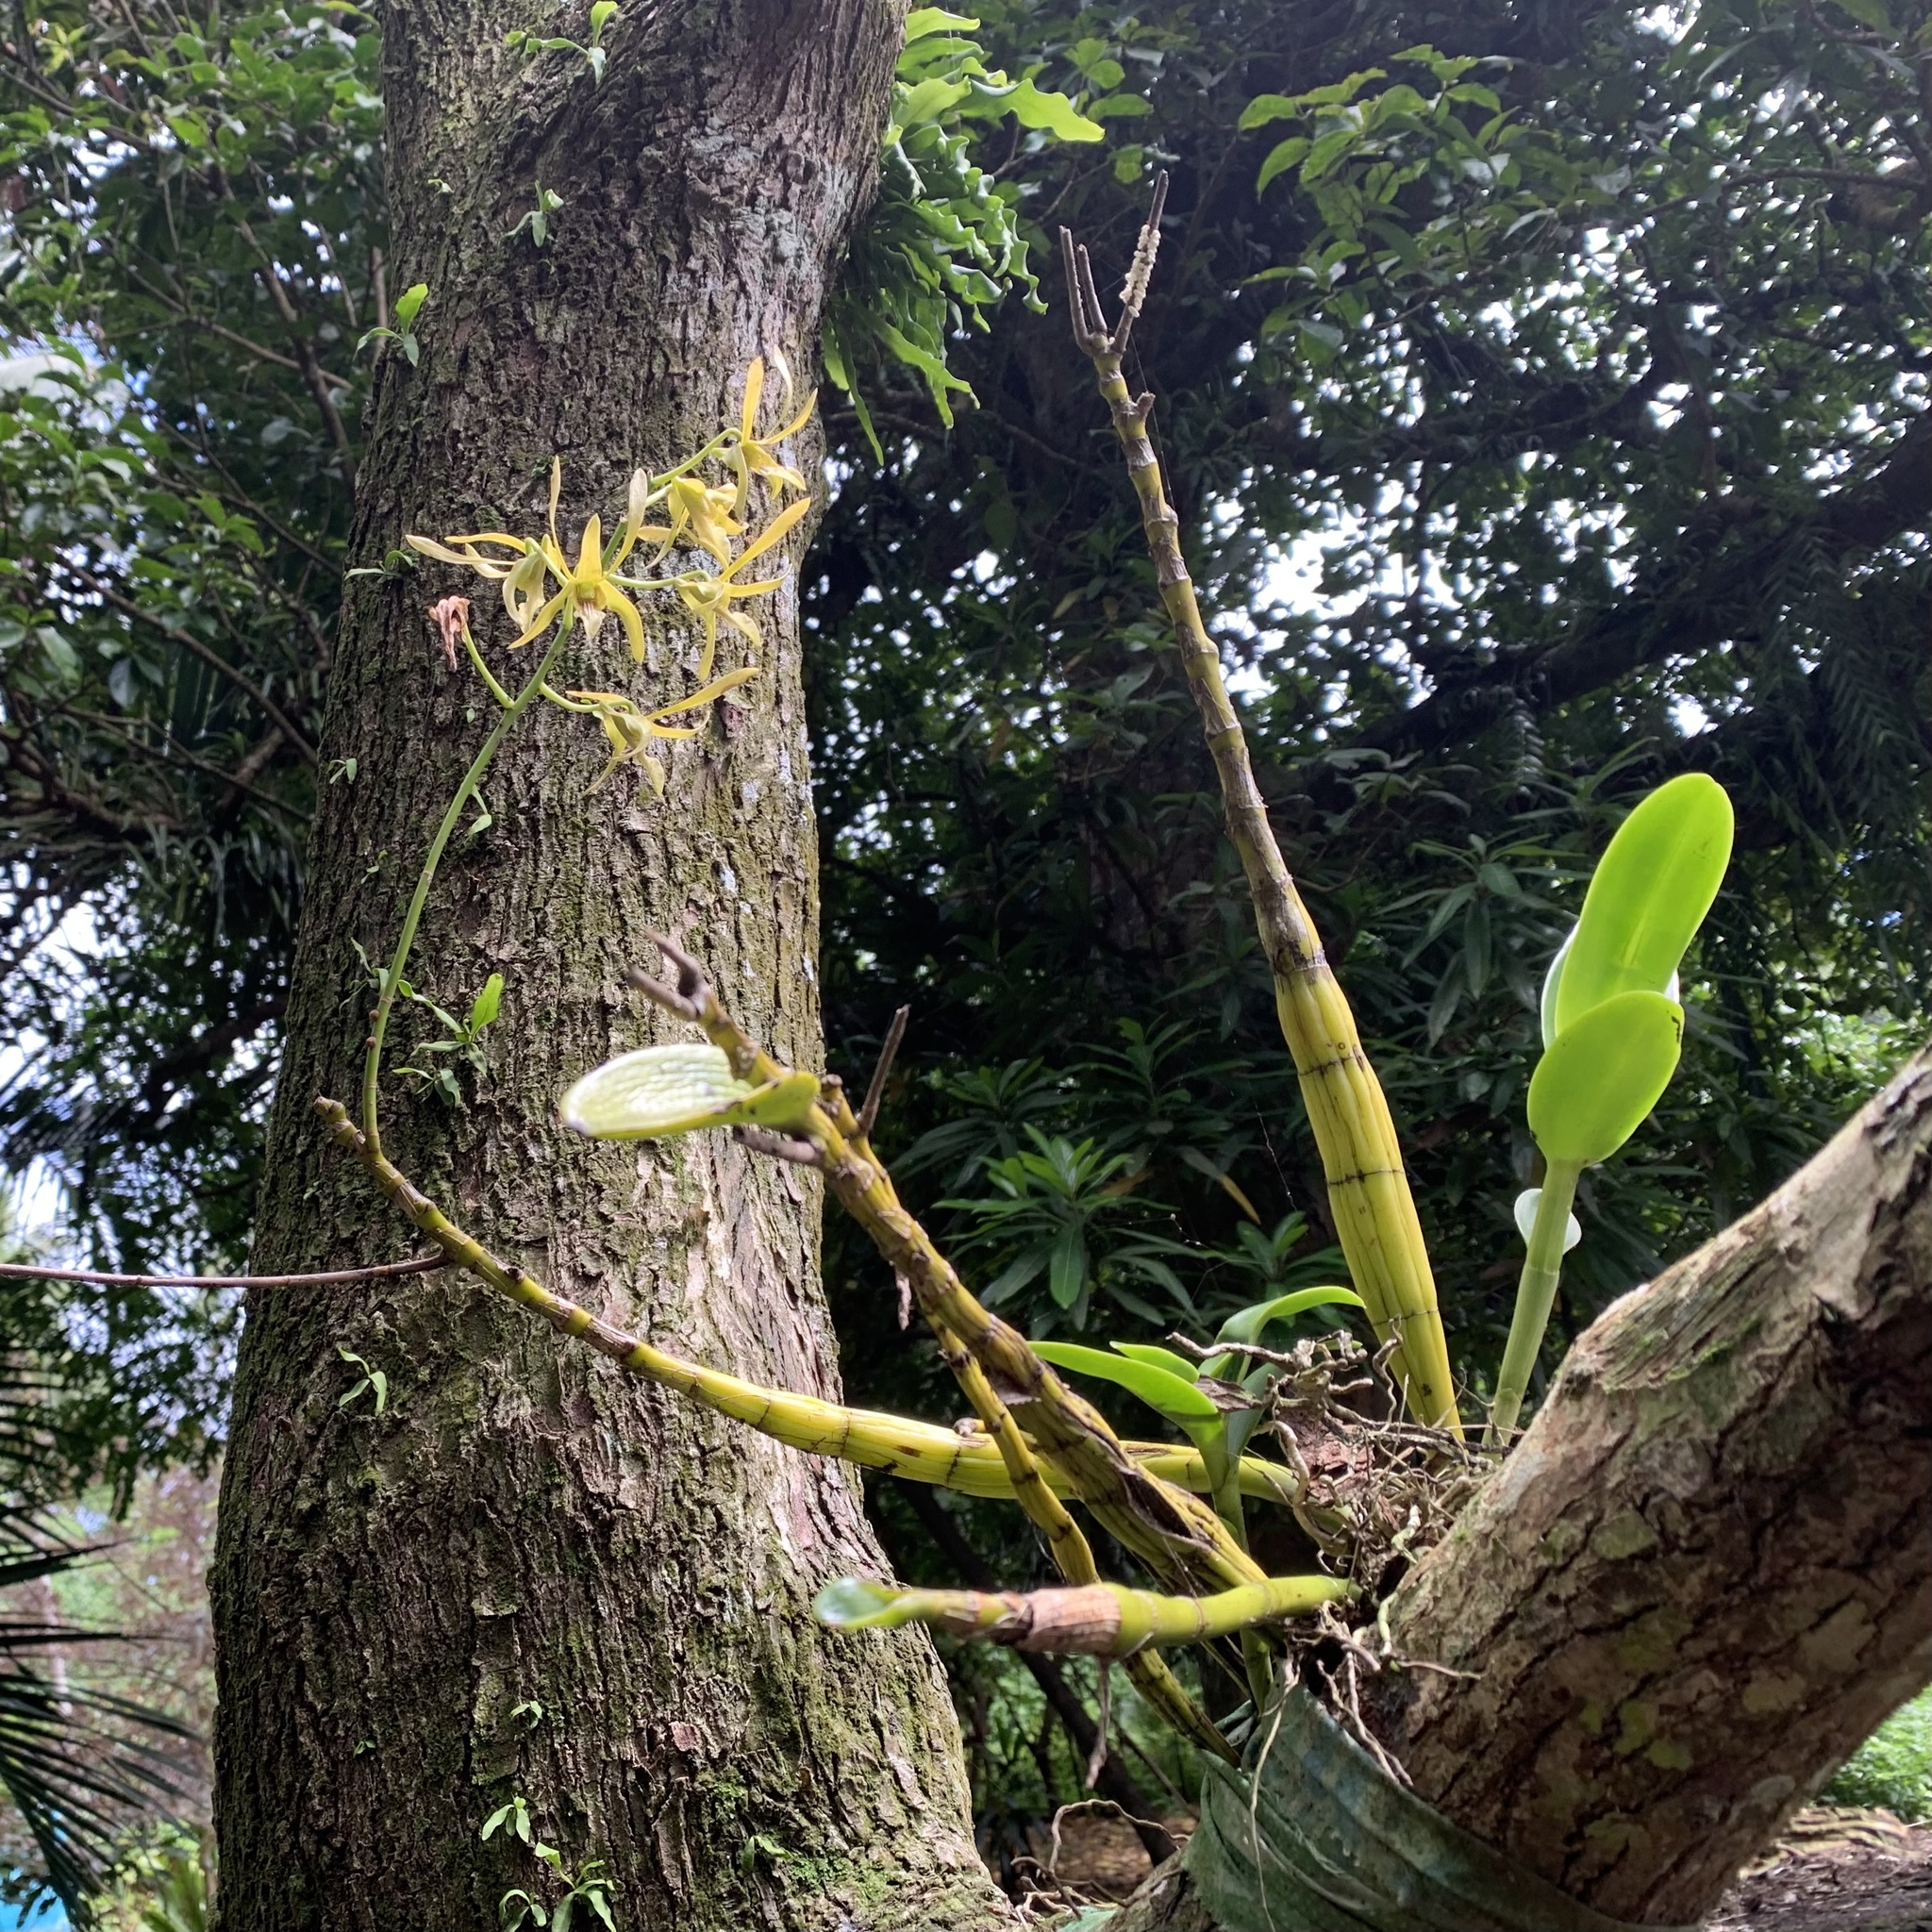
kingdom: Plantae
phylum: Tracheophyta
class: Liliopsida
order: Asparagales
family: Orchidaceae
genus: Dendrobium
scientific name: Dendrobium macranthum
